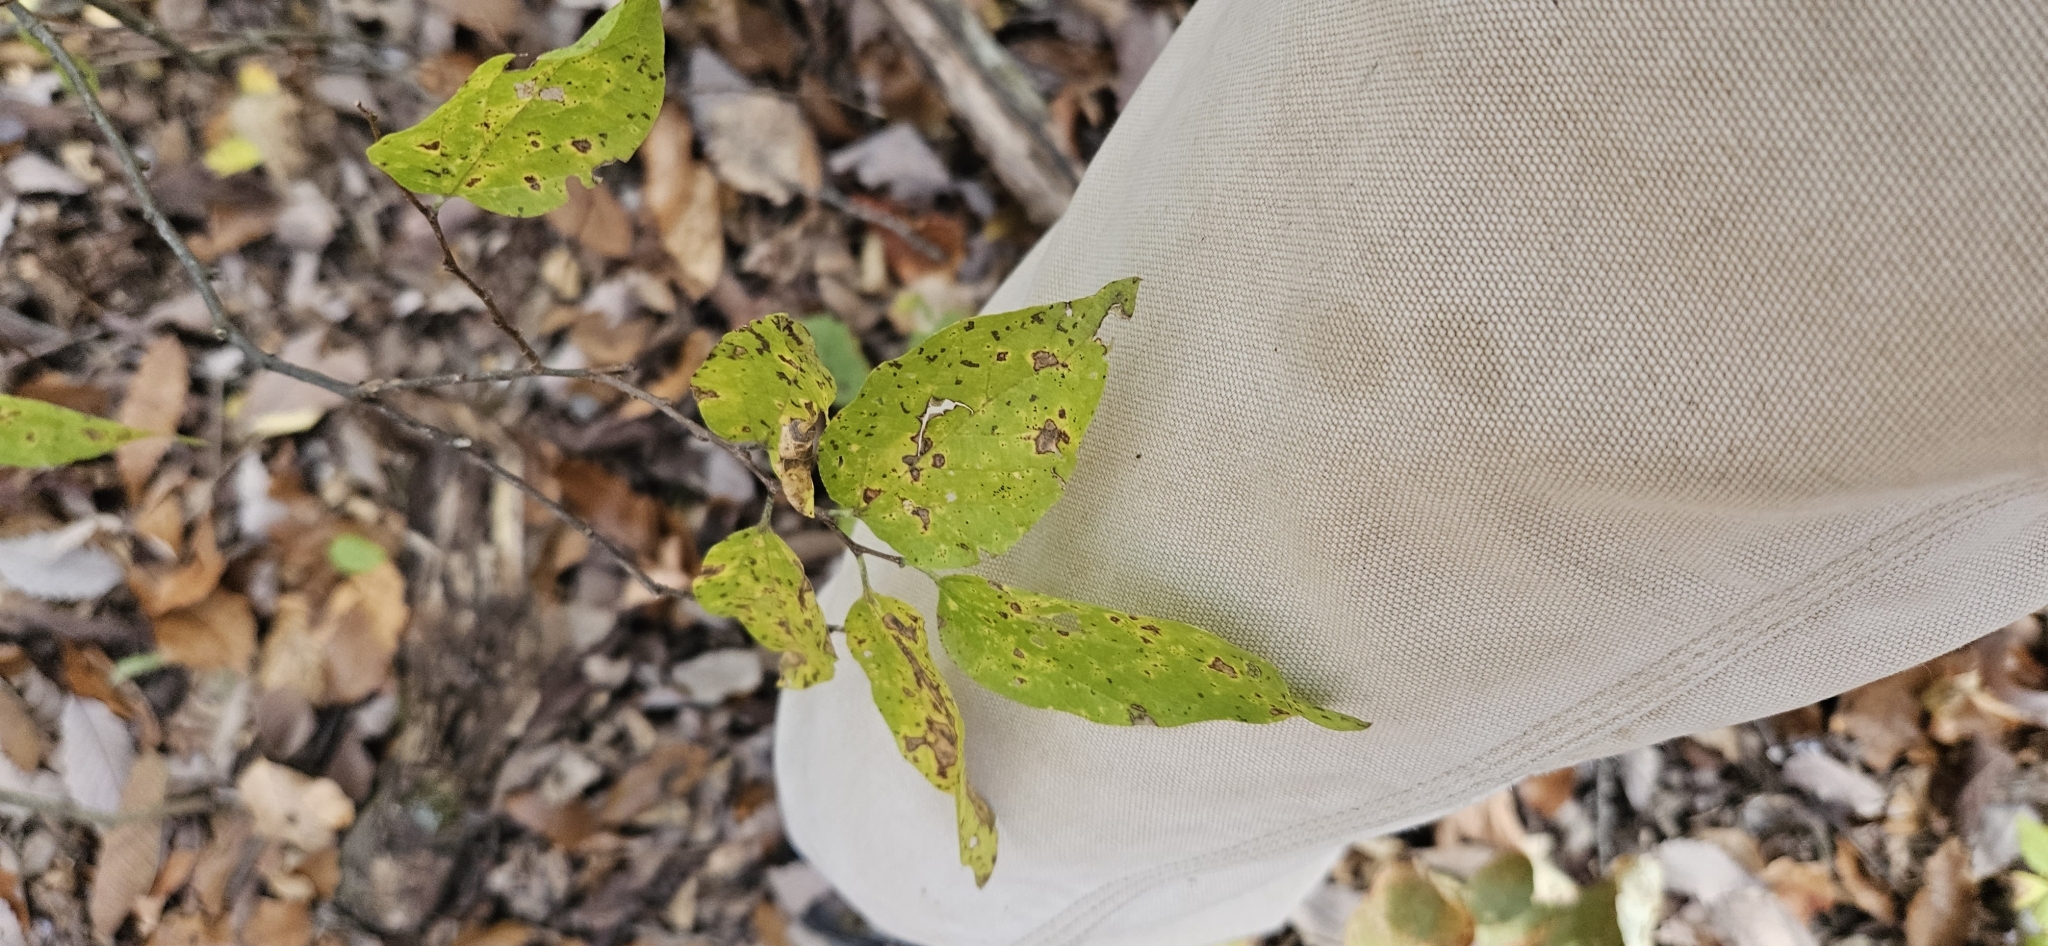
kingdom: Plantae
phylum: Tracheophyta
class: Magnoliopsida
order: Rosales
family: Cannabaceae
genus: Celtis
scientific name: Celtis occidentalis
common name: Common hackberry
